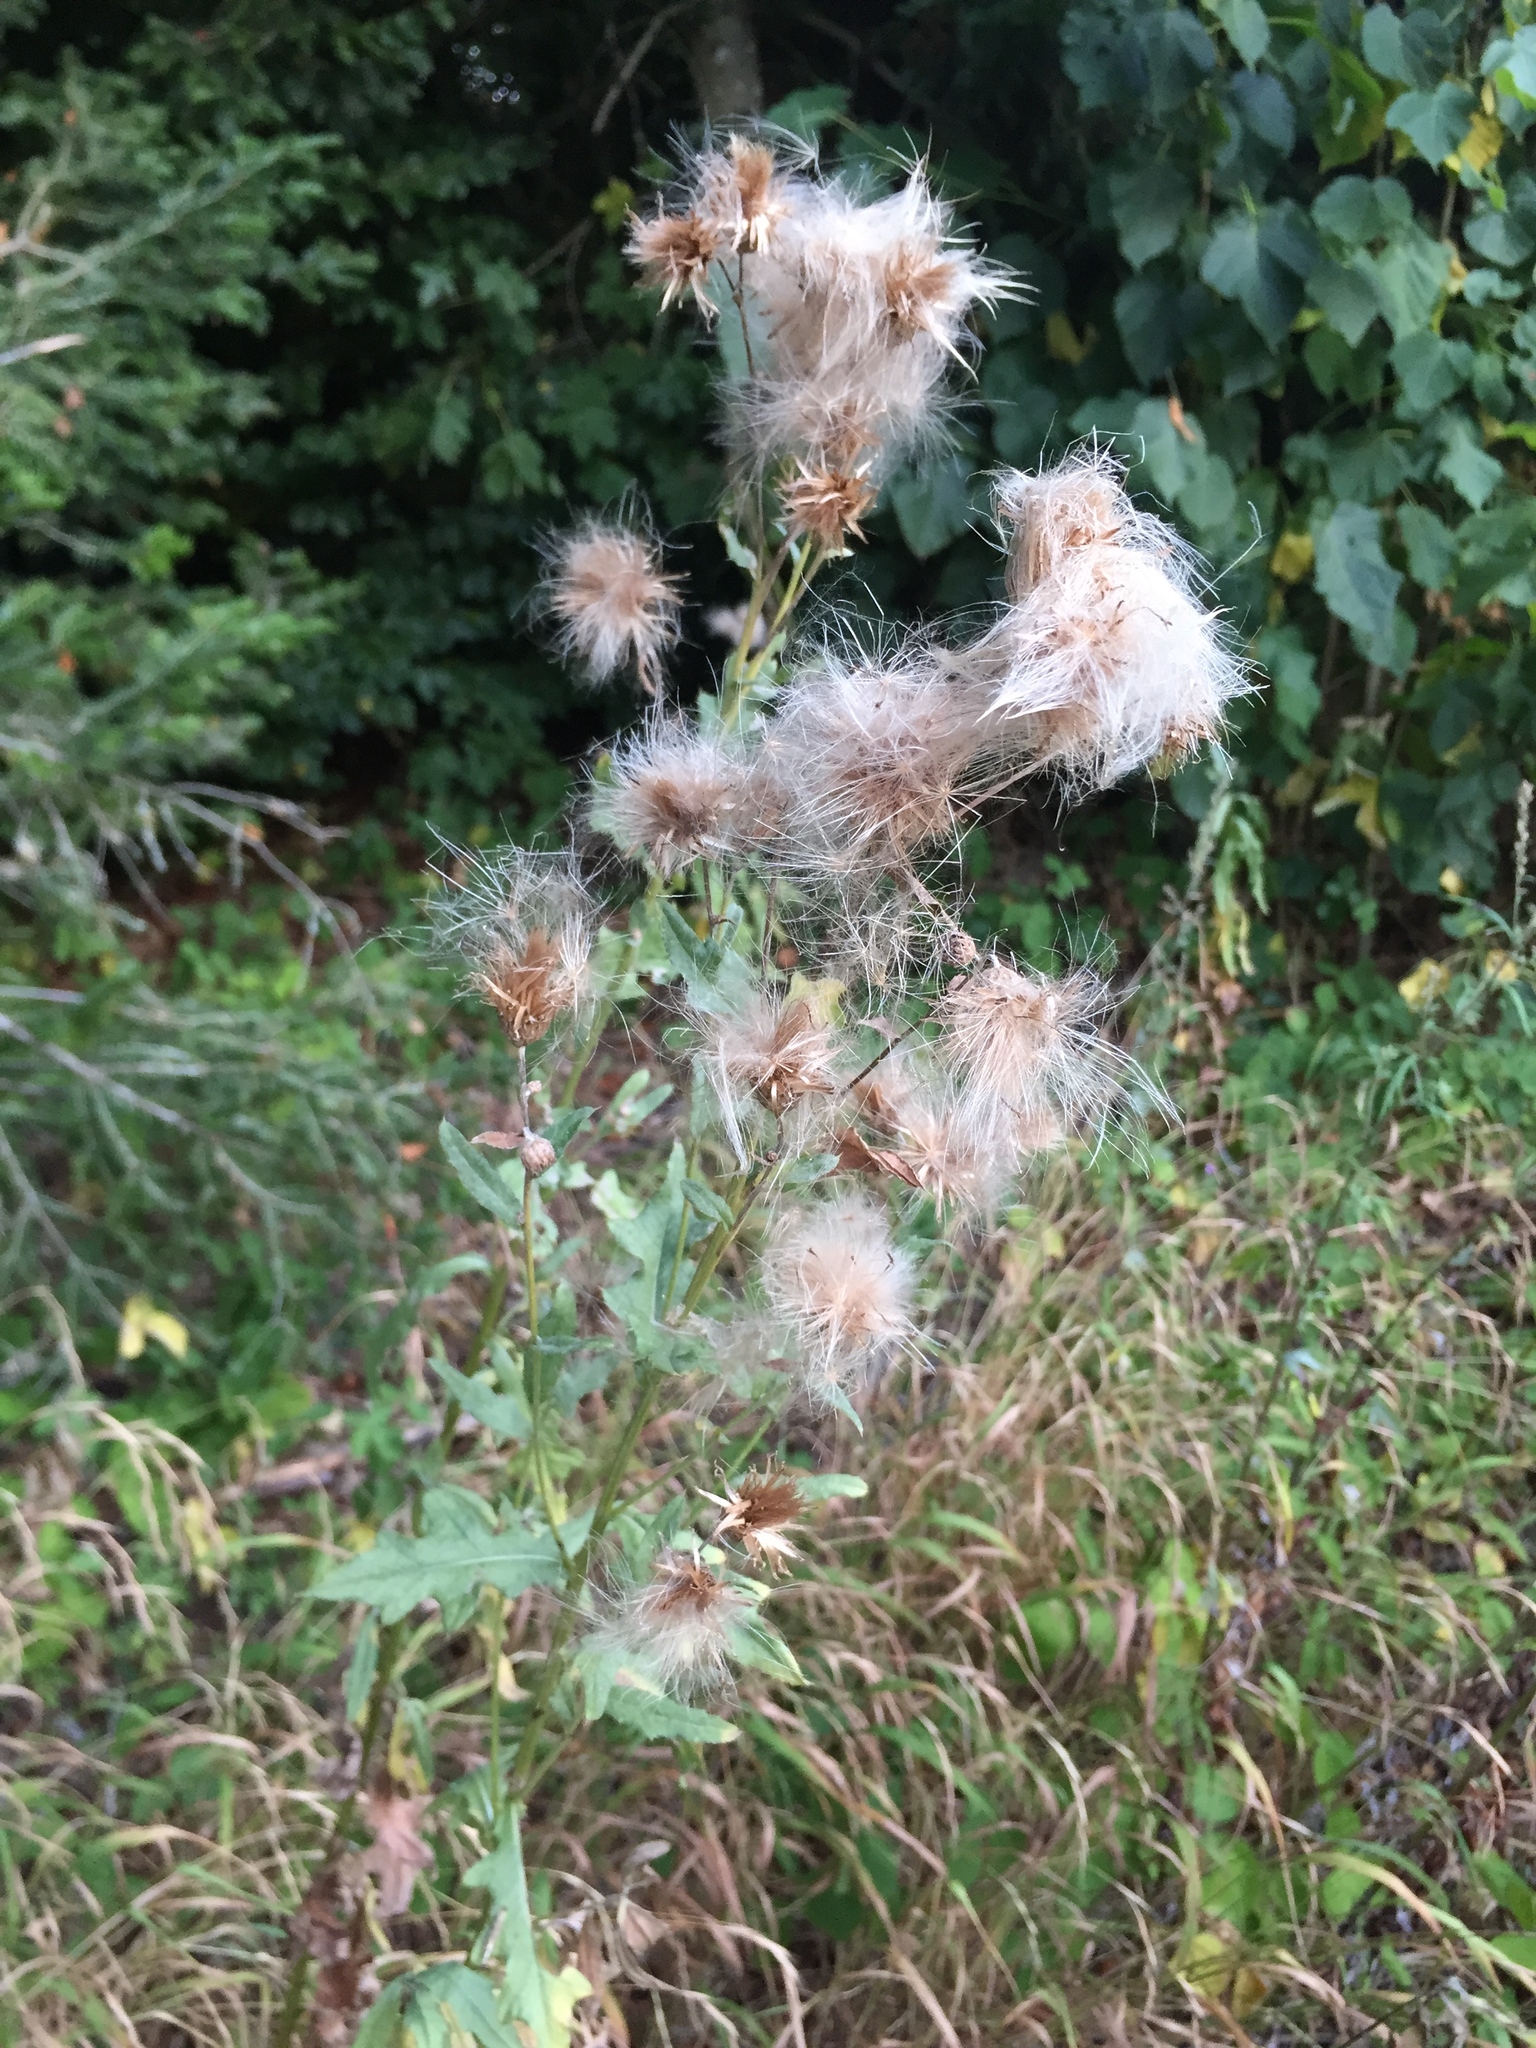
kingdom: Plantae
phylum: Tracheophyta
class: Magnoliopsida
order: Asterales
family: Asteraceae
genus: Cirsium
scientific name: Cirsium arvense
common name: Creeping thistle
